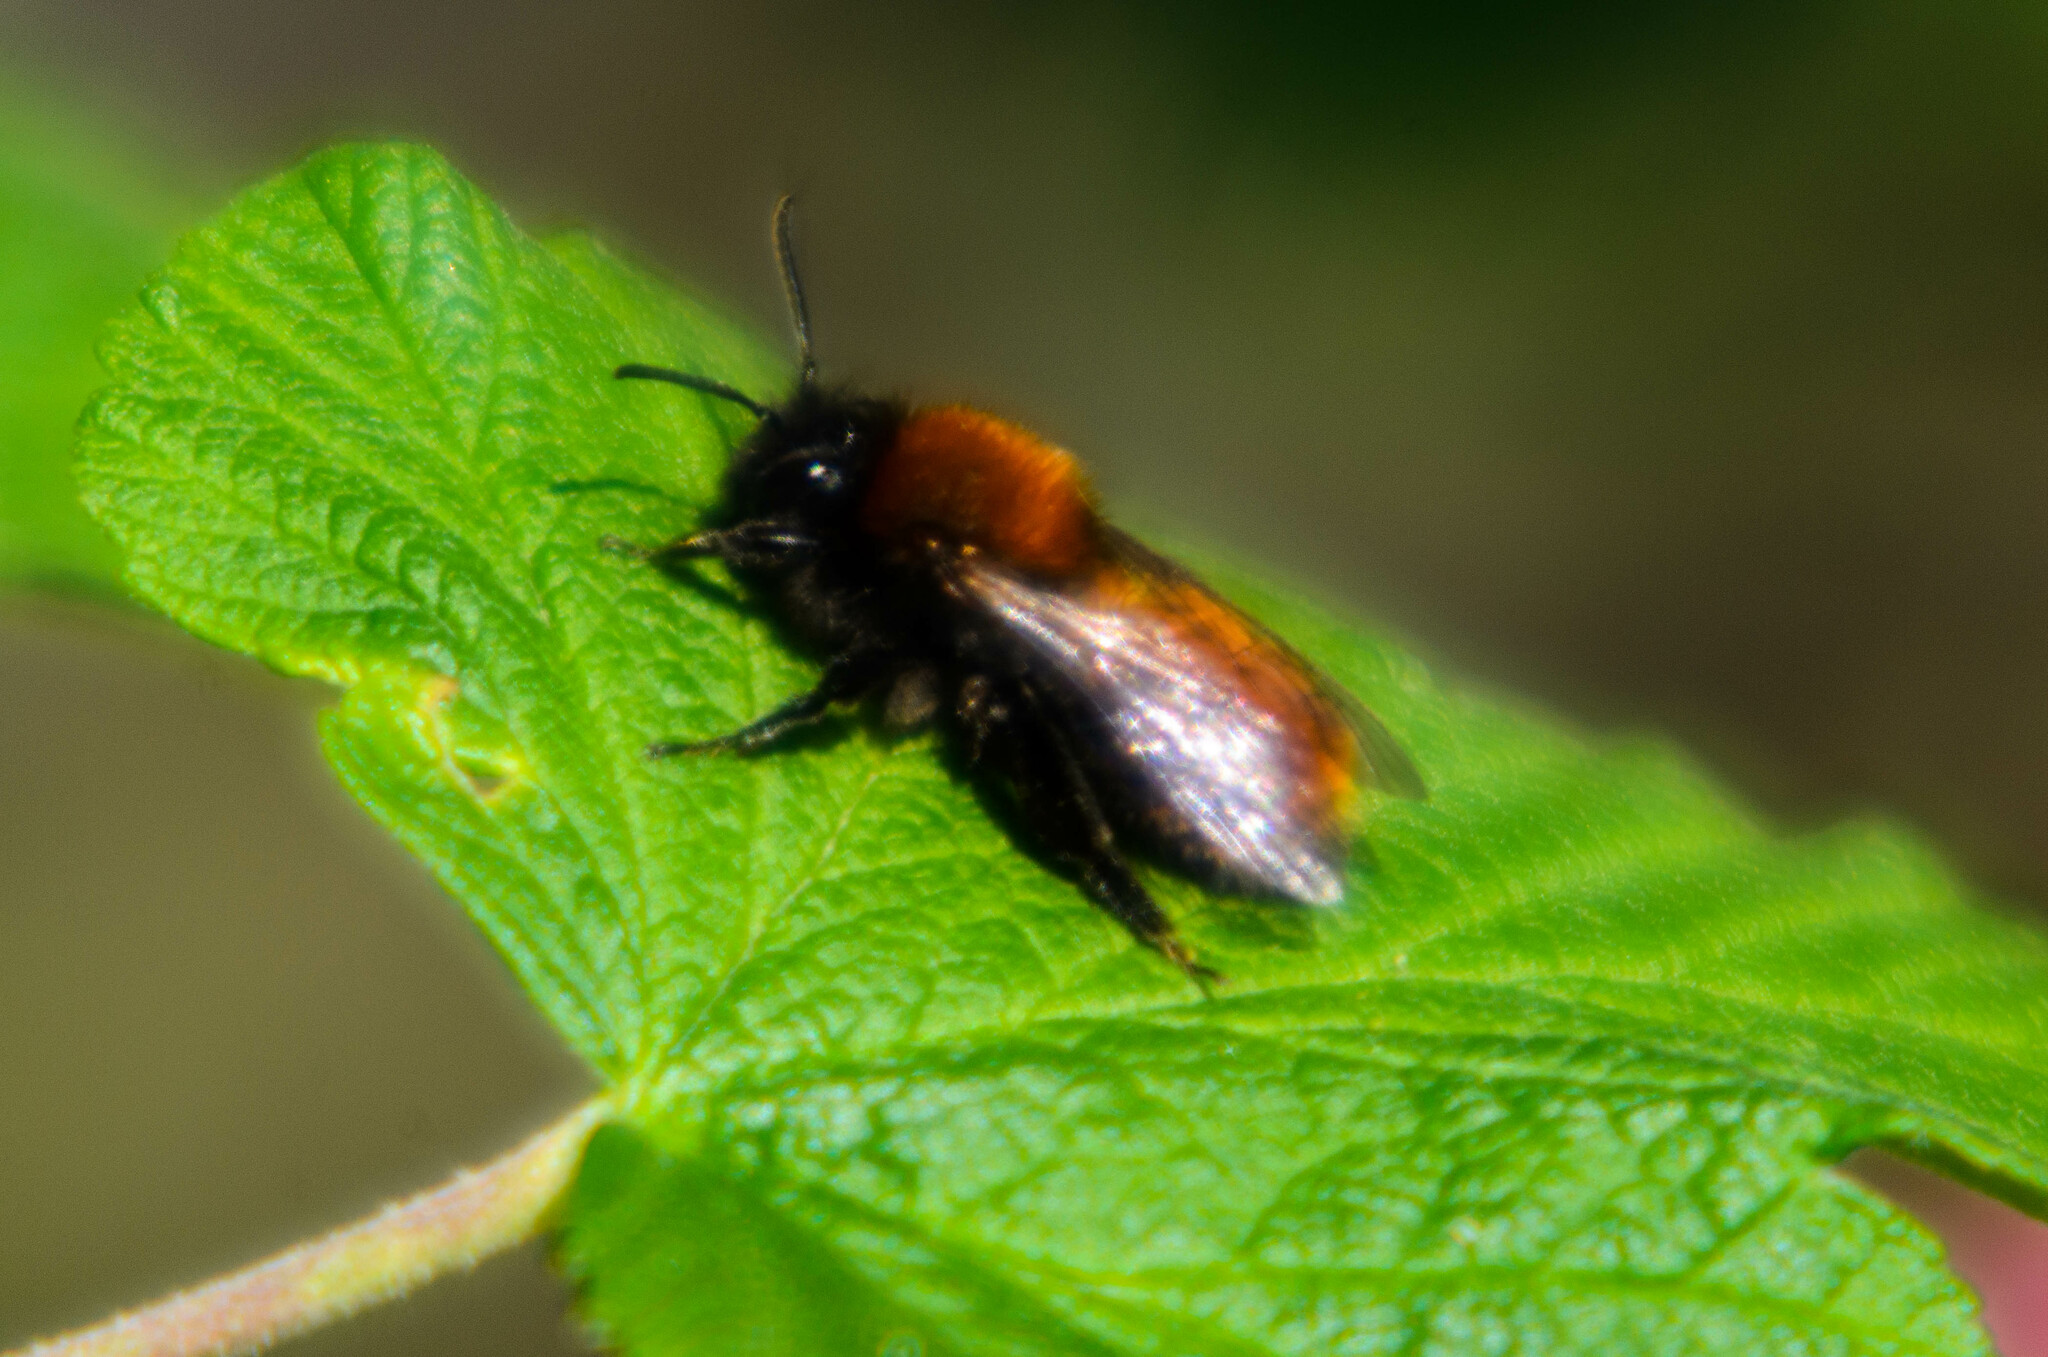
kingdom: Animalia
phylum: Arthropoda
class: Insecta
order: Hymenoptera
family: Andrenidae
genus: Andrena
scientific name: Andrena fulva
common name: Tawny mining bee
